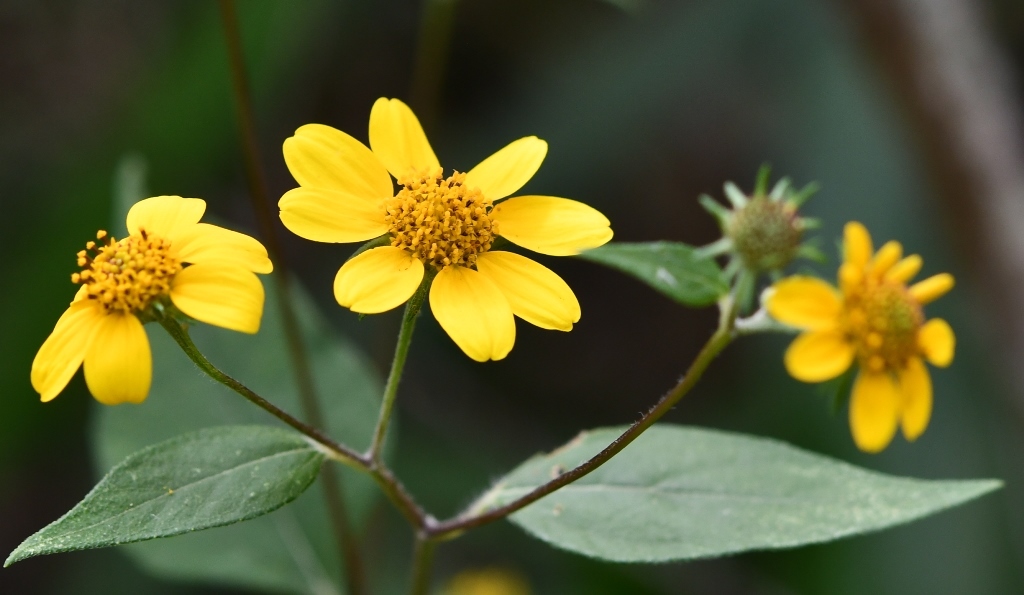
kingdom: Plantae
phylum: Tracheophyta
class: Magnoliopsida
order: Asterales
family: Asteraceae
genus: Verbesina
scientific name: Verbesina hypoglauca
